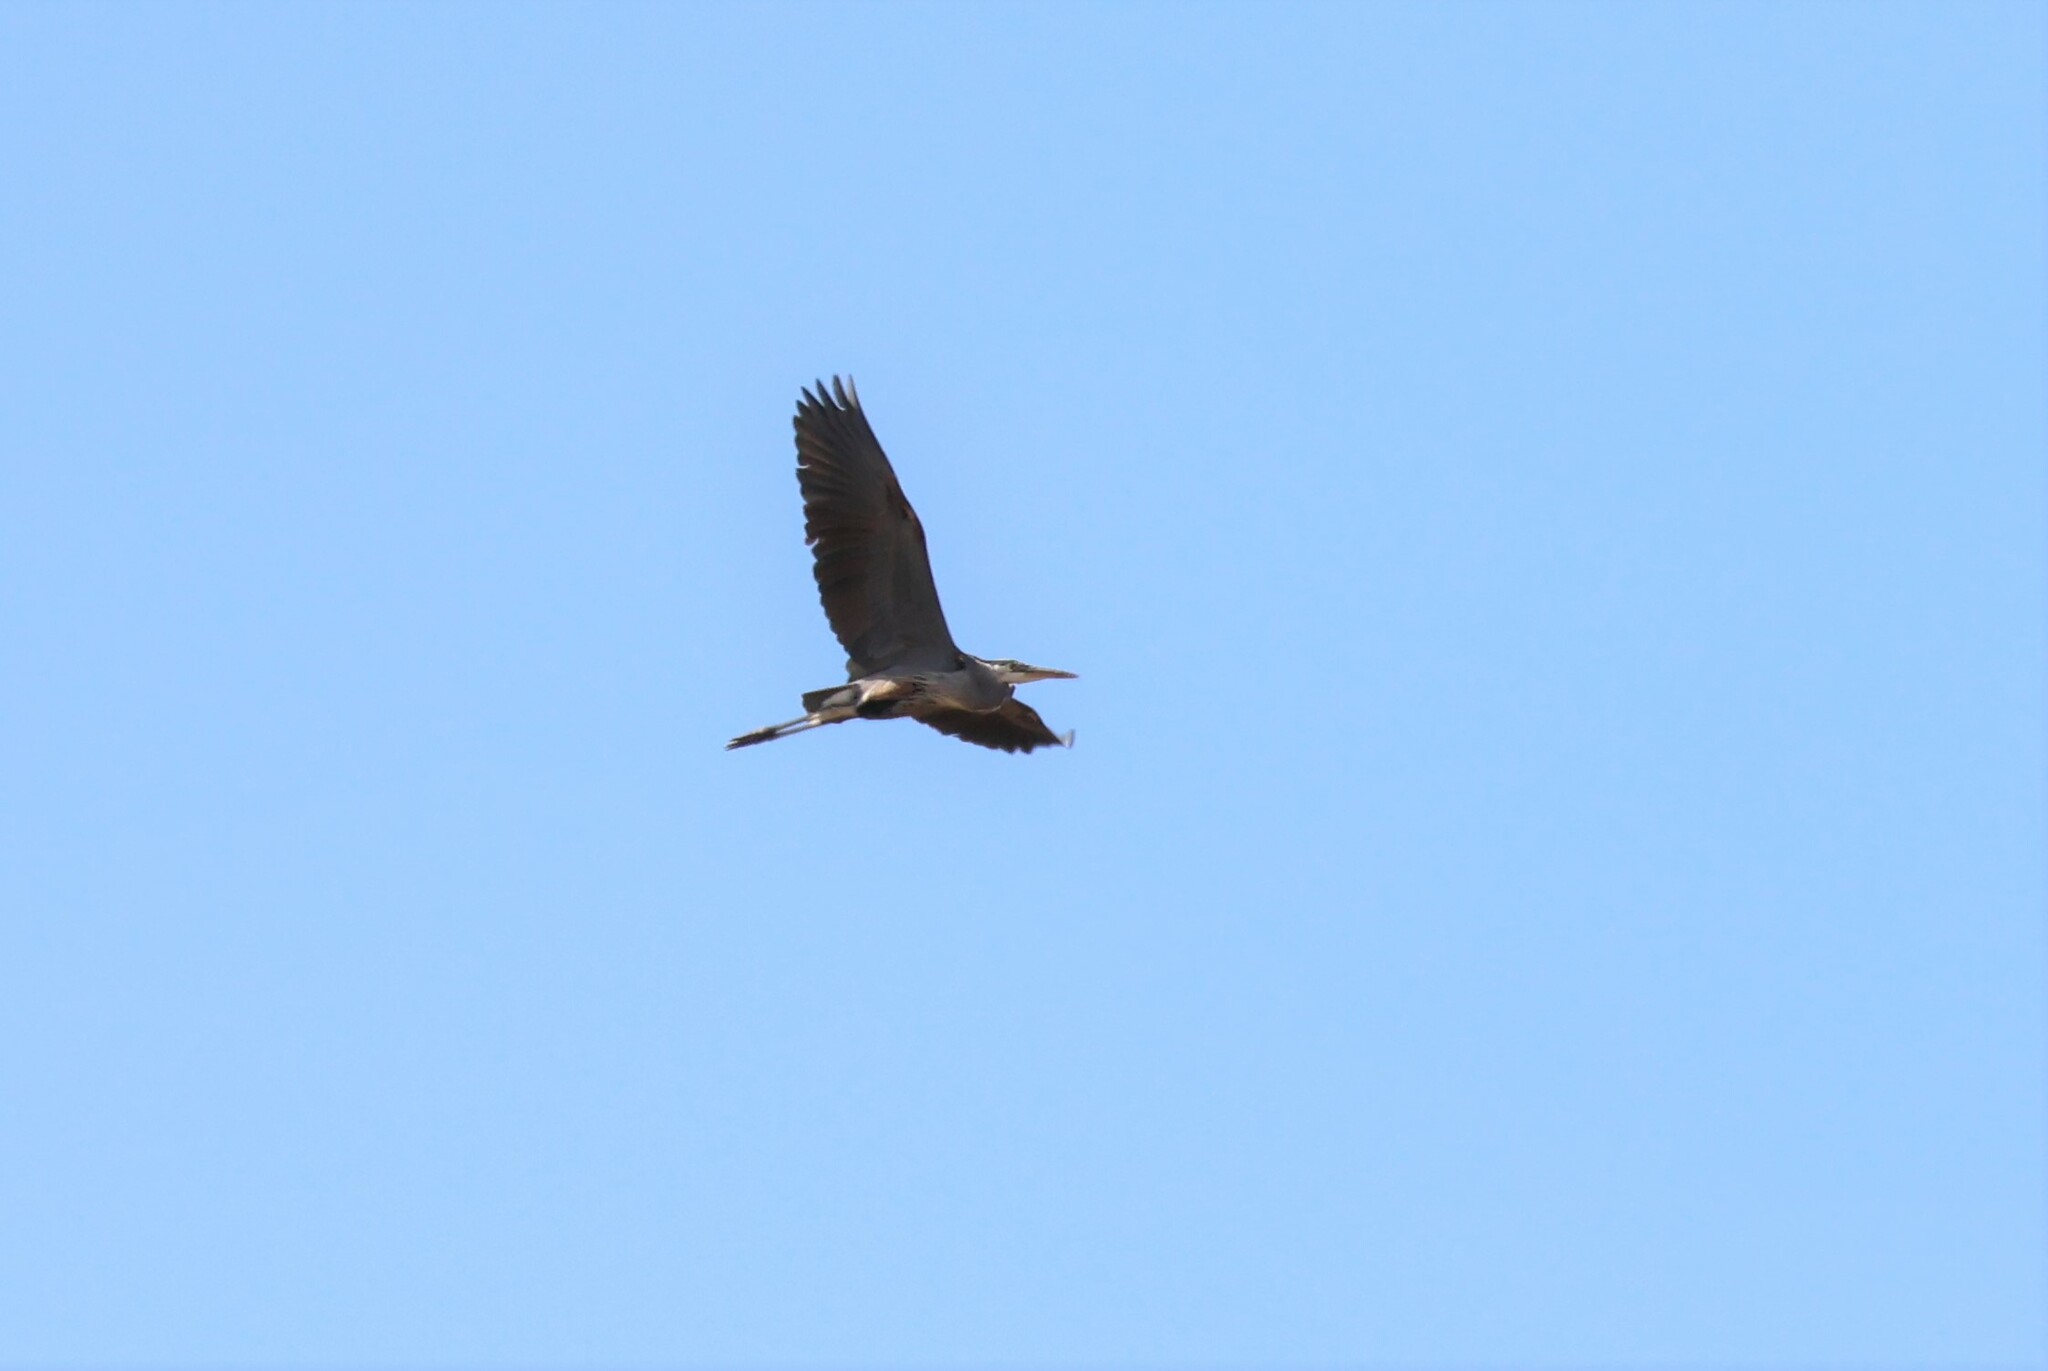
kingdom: Animalia
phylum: Chordata
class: Aves
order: Pelecaniformes
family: Ardeidae
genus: Ardea
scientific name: Ardea herodias
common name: Great blue heron
